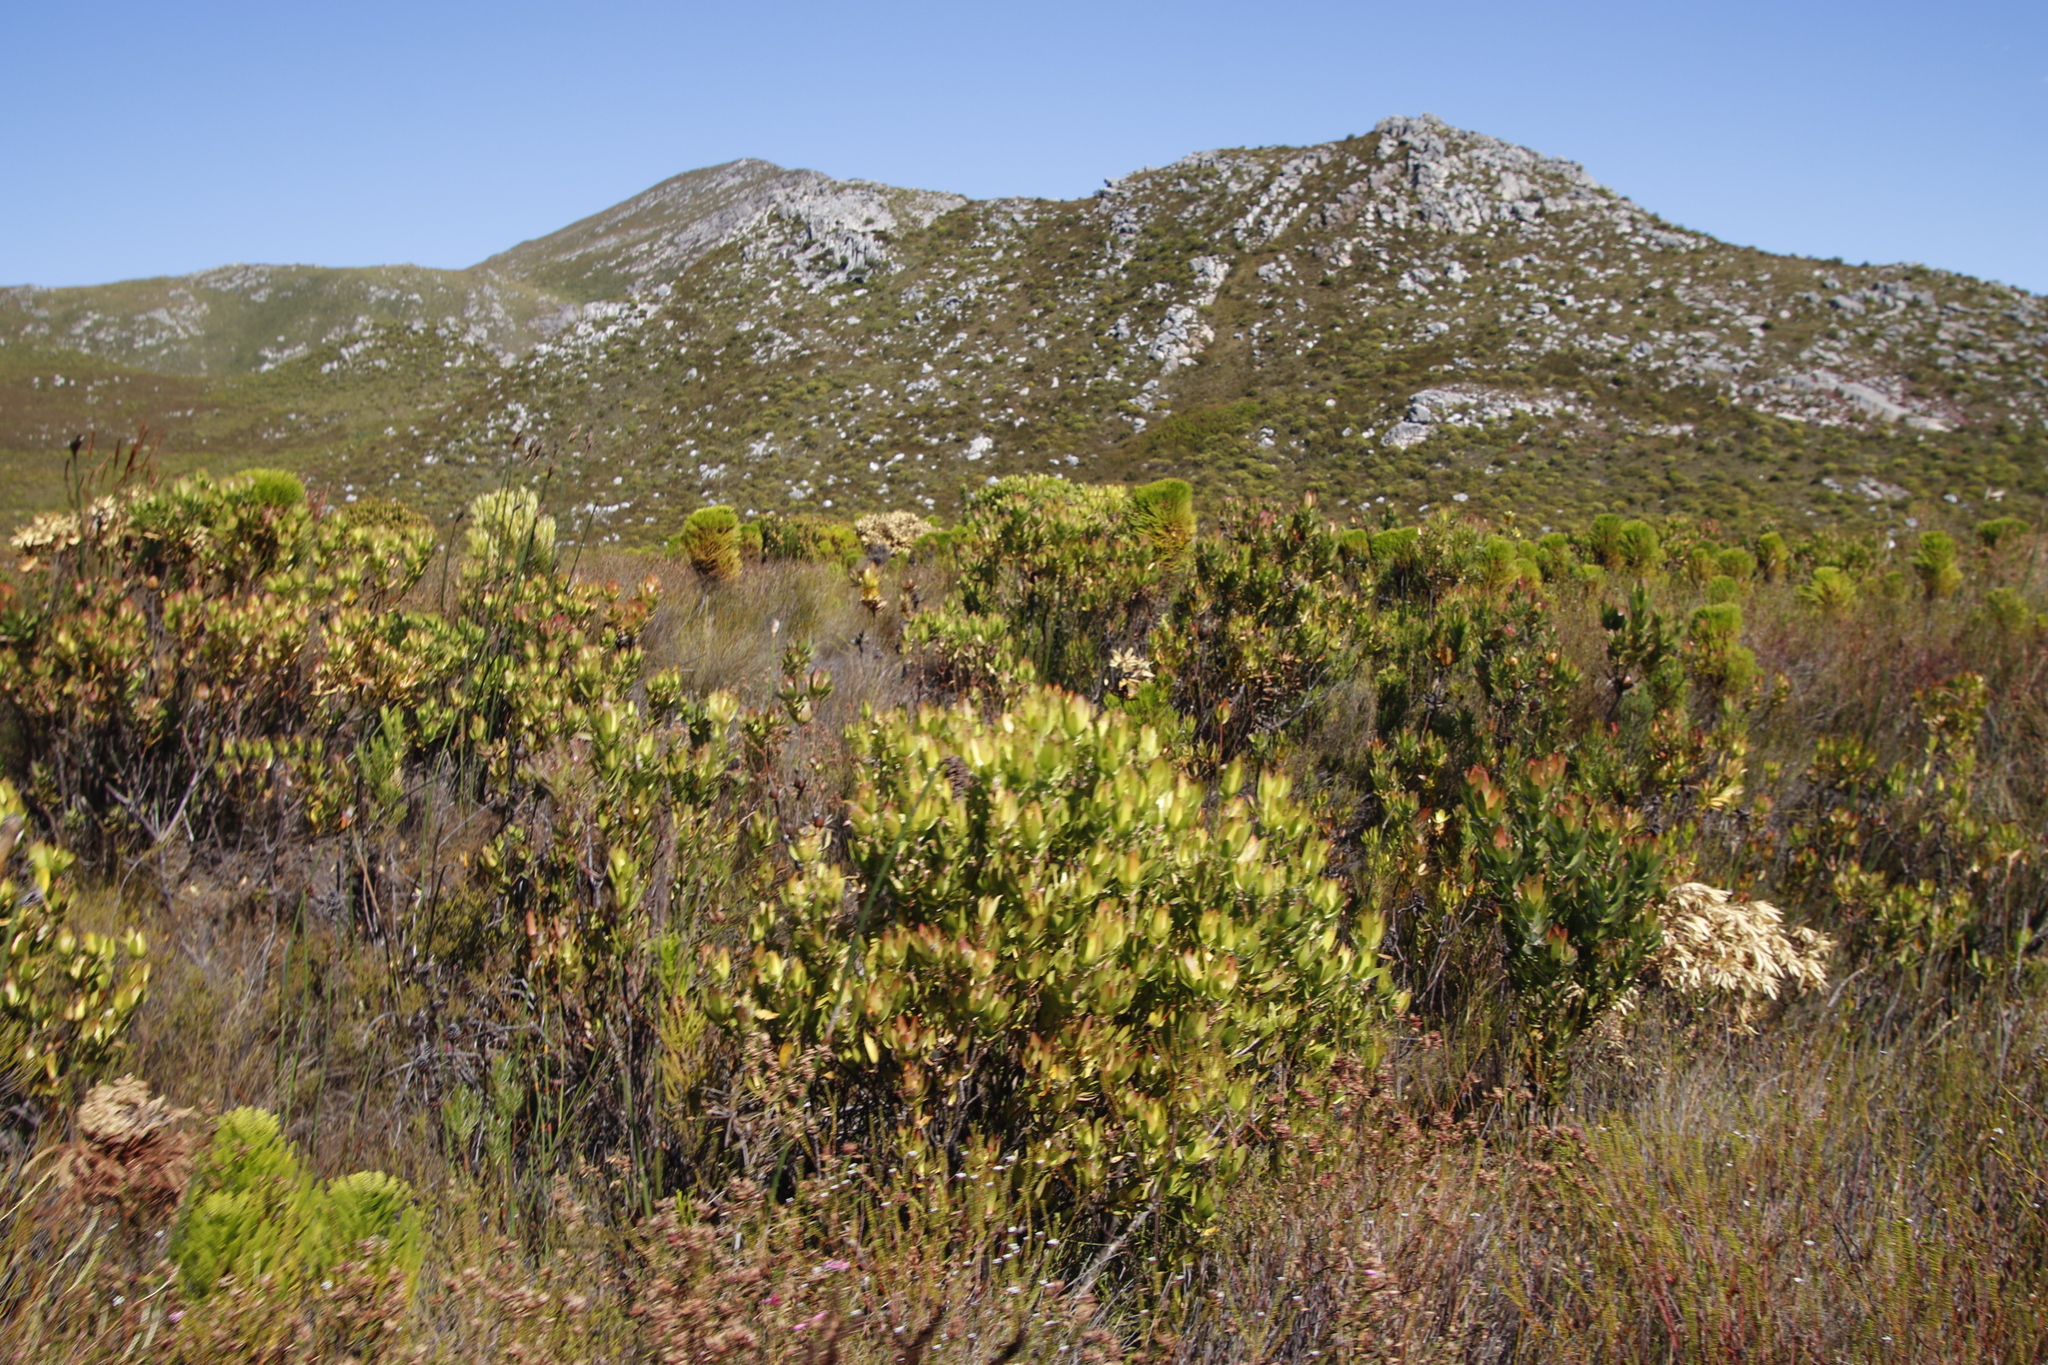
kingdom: Plantae
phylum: Tracheophyta
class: Magnoliopsida
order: Proteales
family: Proteaceae
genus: Leucadendron
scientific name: Leucadendron laureolum
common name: Golden sunshinebush
